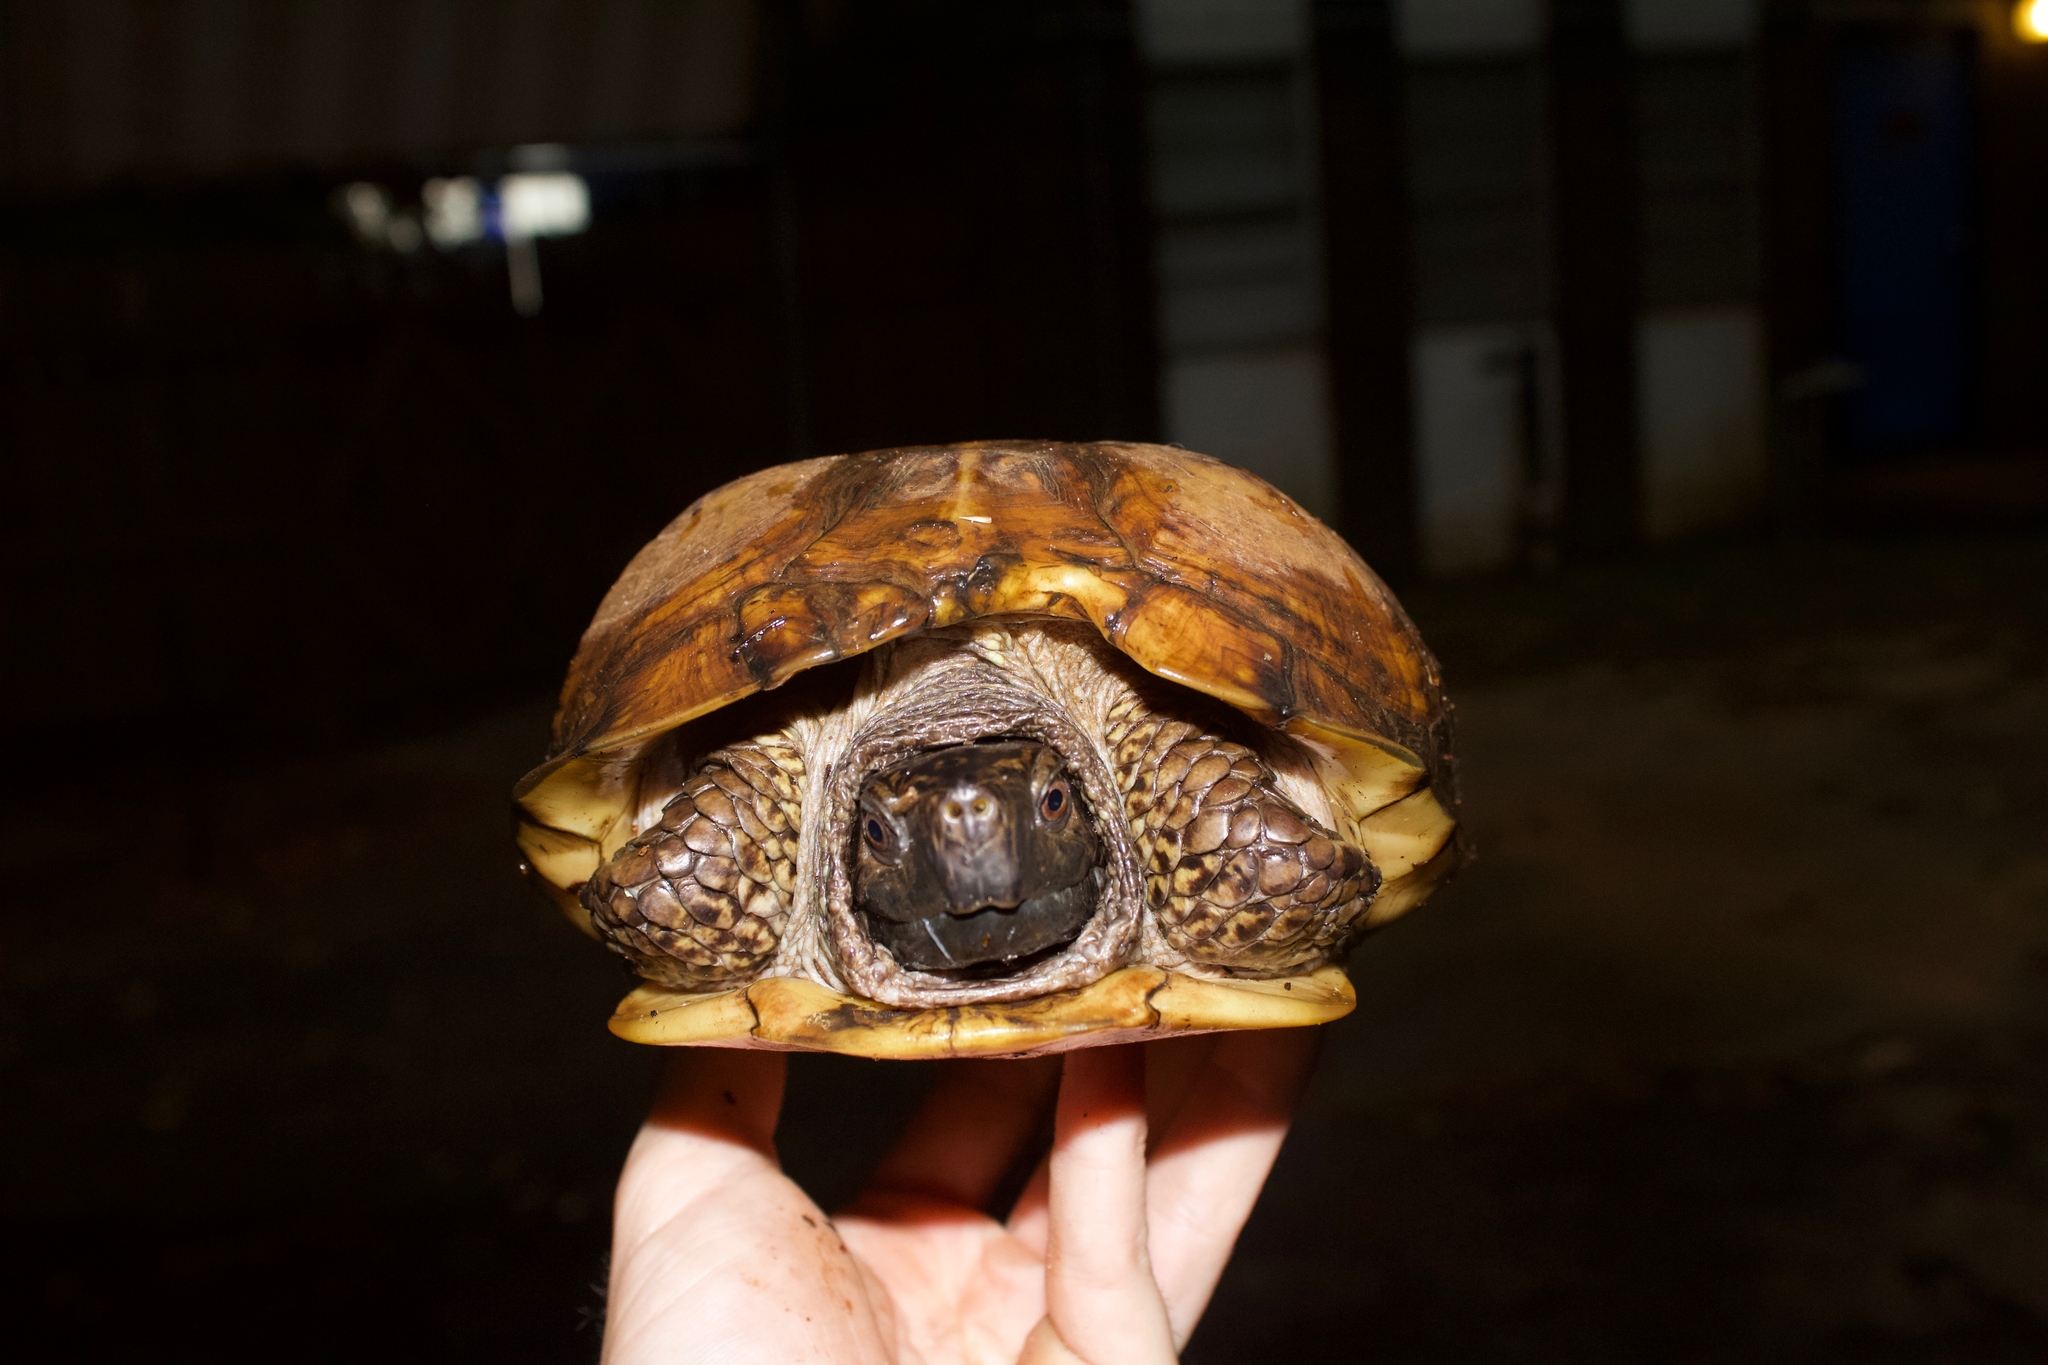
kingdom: Animalia
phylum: Chordata
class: Testudines
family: Emydidae
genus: Terrapene
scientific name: Terrapene carolina
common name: Common box turtle
